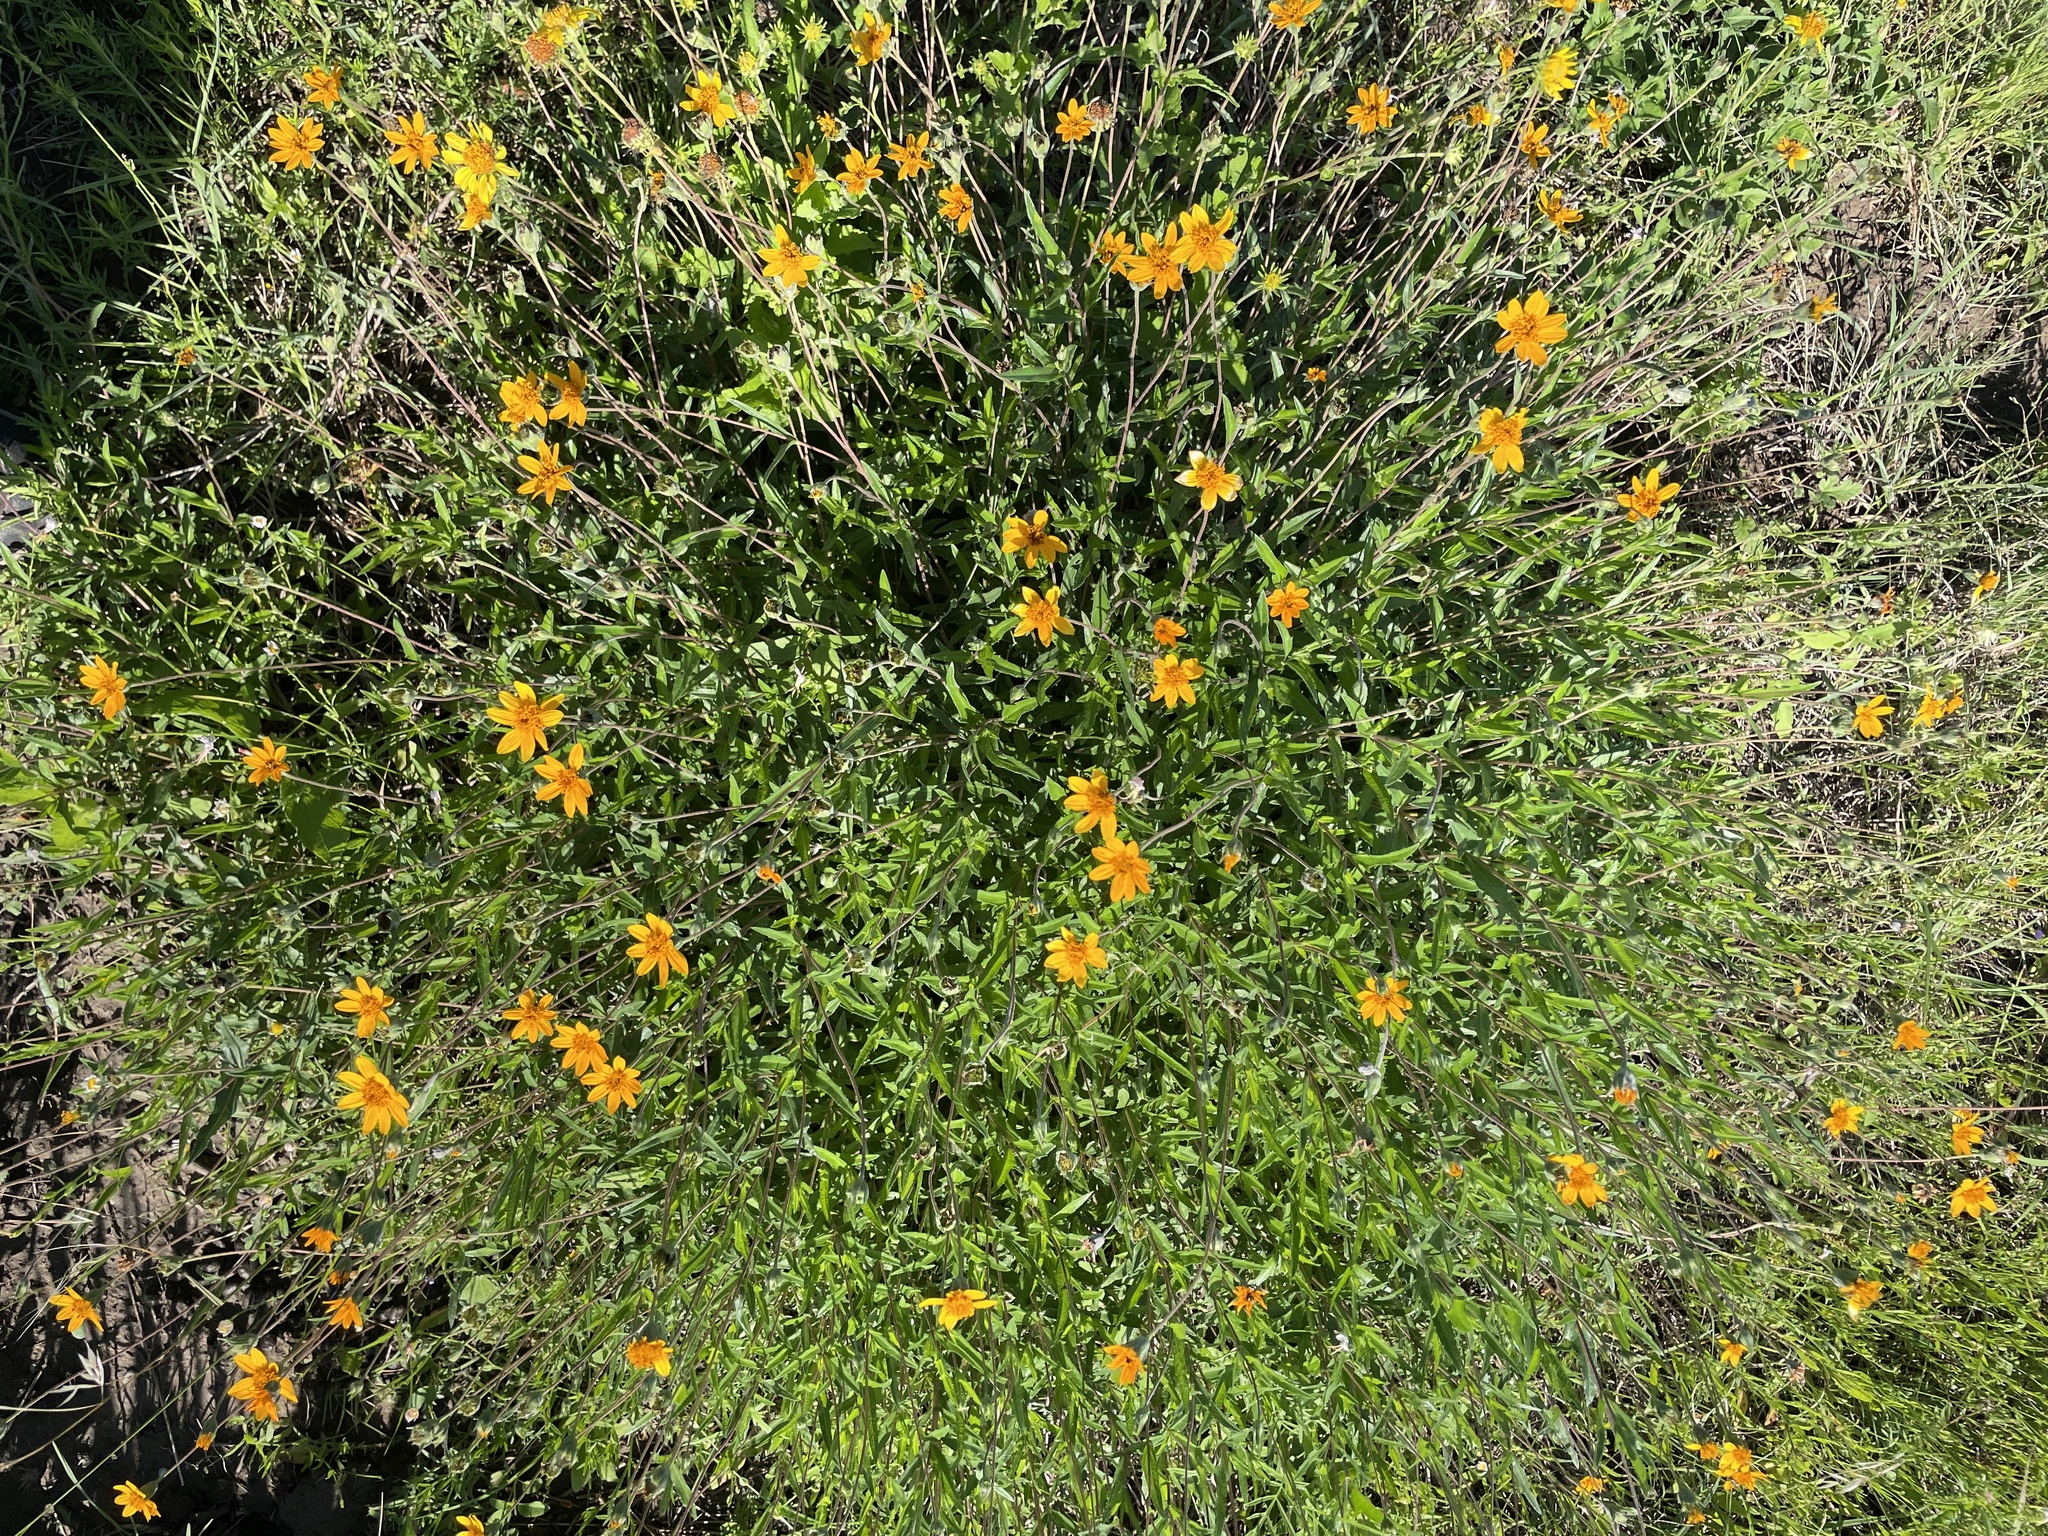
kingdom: Plantae
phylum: Tracheophyta
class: Magnoliopsida
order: Asterales
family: Asteraceae
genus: Wedelia
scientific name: Wedelia acapulcensis
